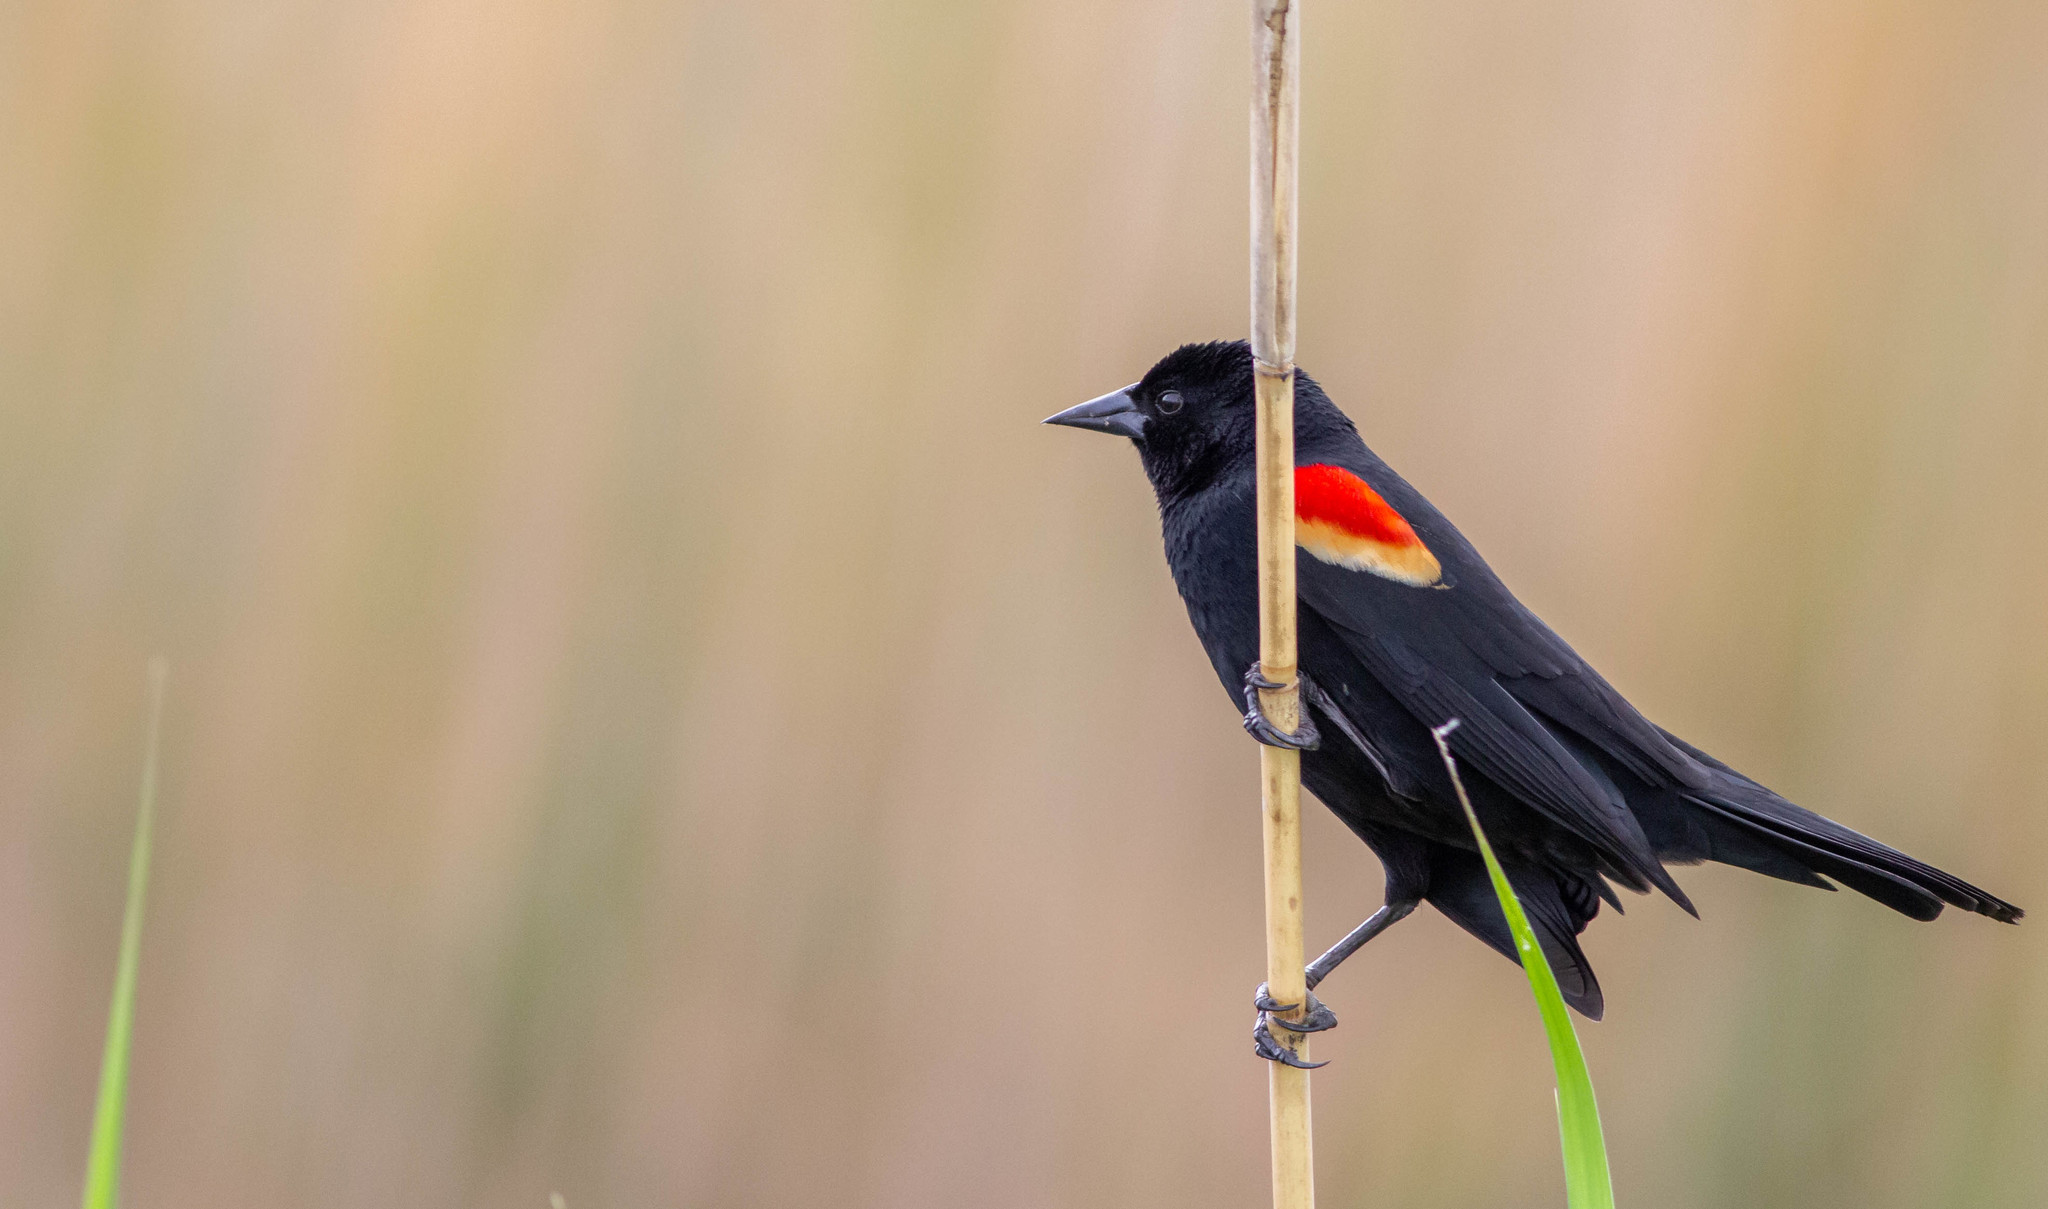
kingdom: Animalia
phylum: Chordata
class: Aves
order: Passeriformes
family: Icteridae
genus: Agelaius
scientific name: Agelaius phoeniceus
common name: Red-winged blackbird
